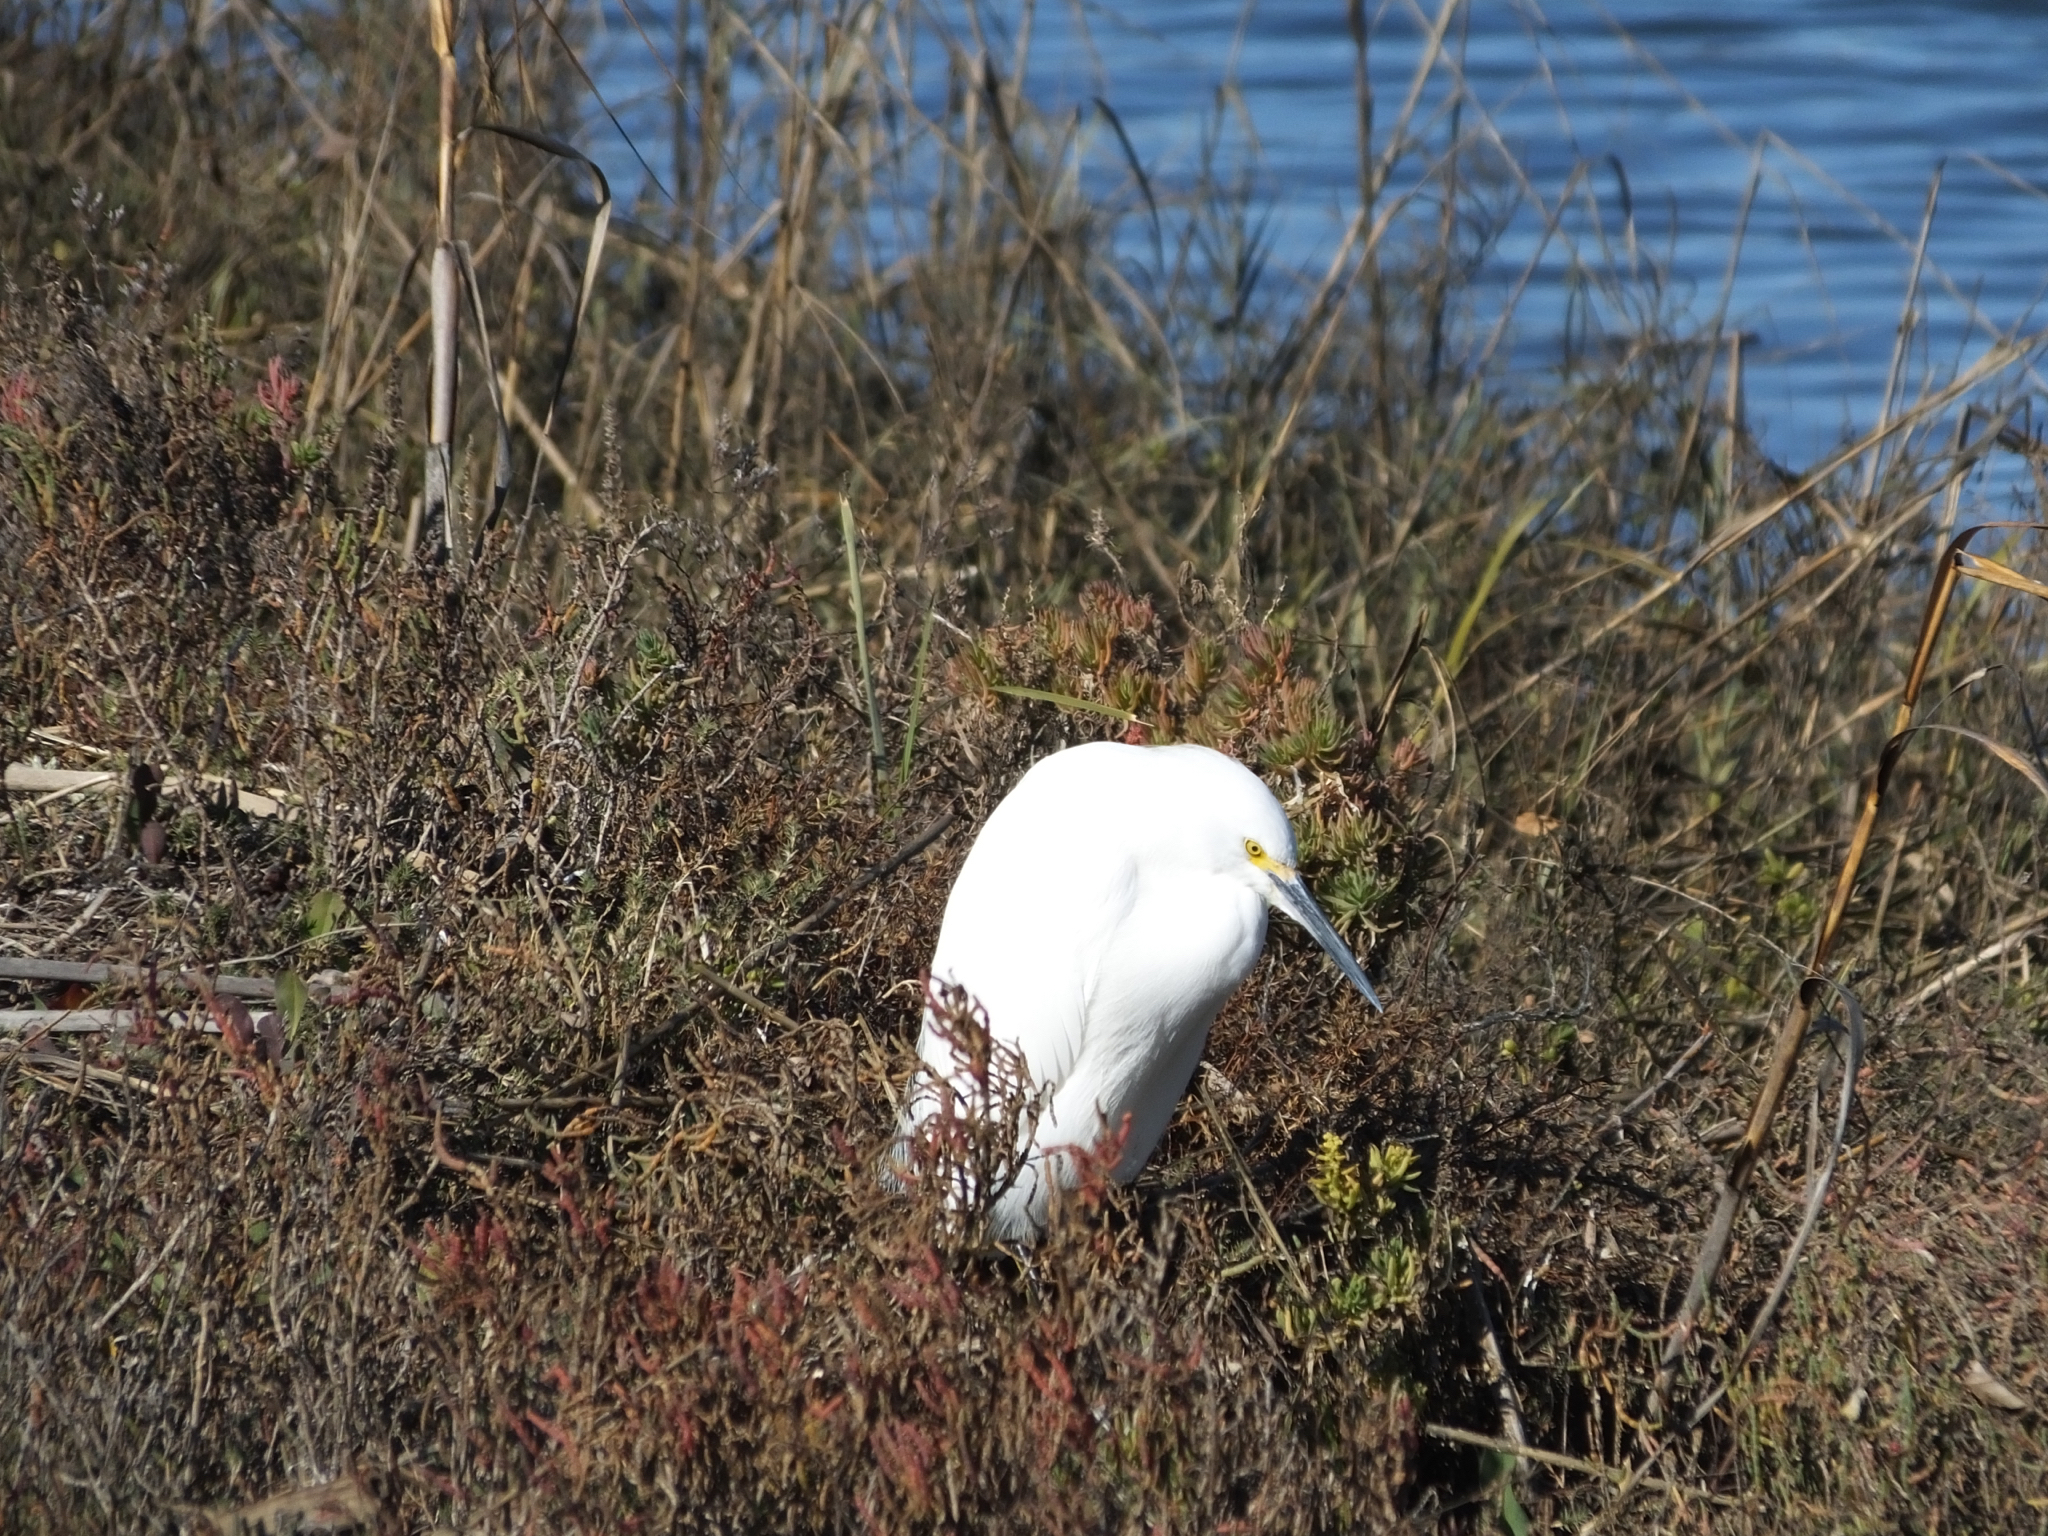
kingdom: Animalia
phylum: Chordata
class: Aves
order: Pelecaniformes
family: Ardeidae
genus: Egretta
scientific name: Egretta thula
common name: Snowy egret
